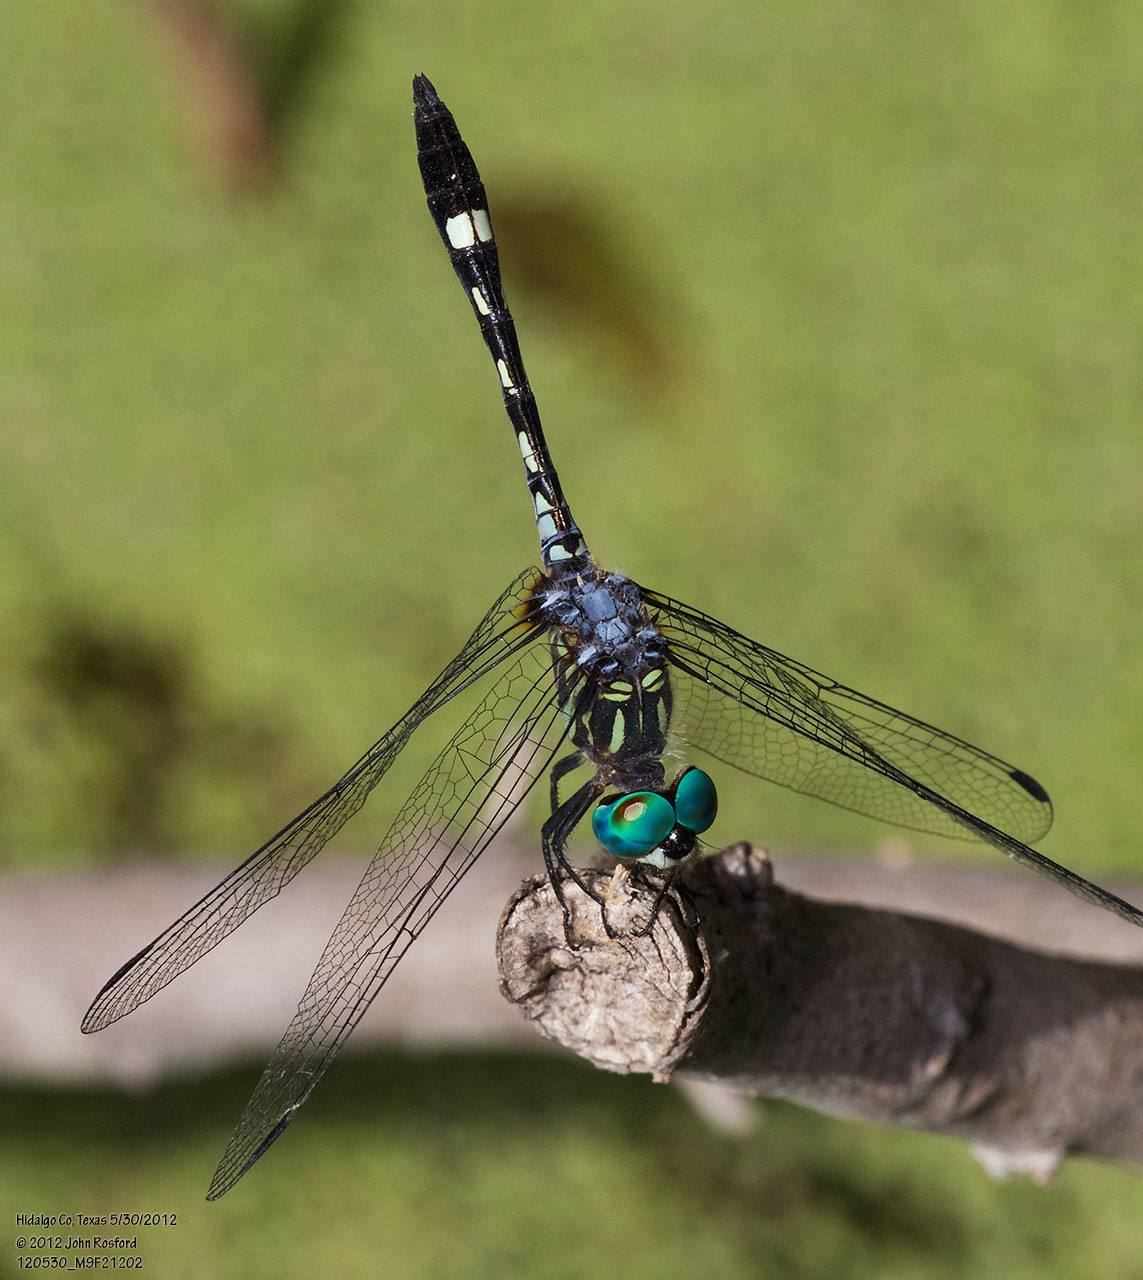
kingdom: Animalia
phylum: Arthropoda
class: Insecta
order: Odonata
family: Libellulidae
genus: Micrathyria
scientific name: Micrathyria hagenii
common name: Thornbush dasher
